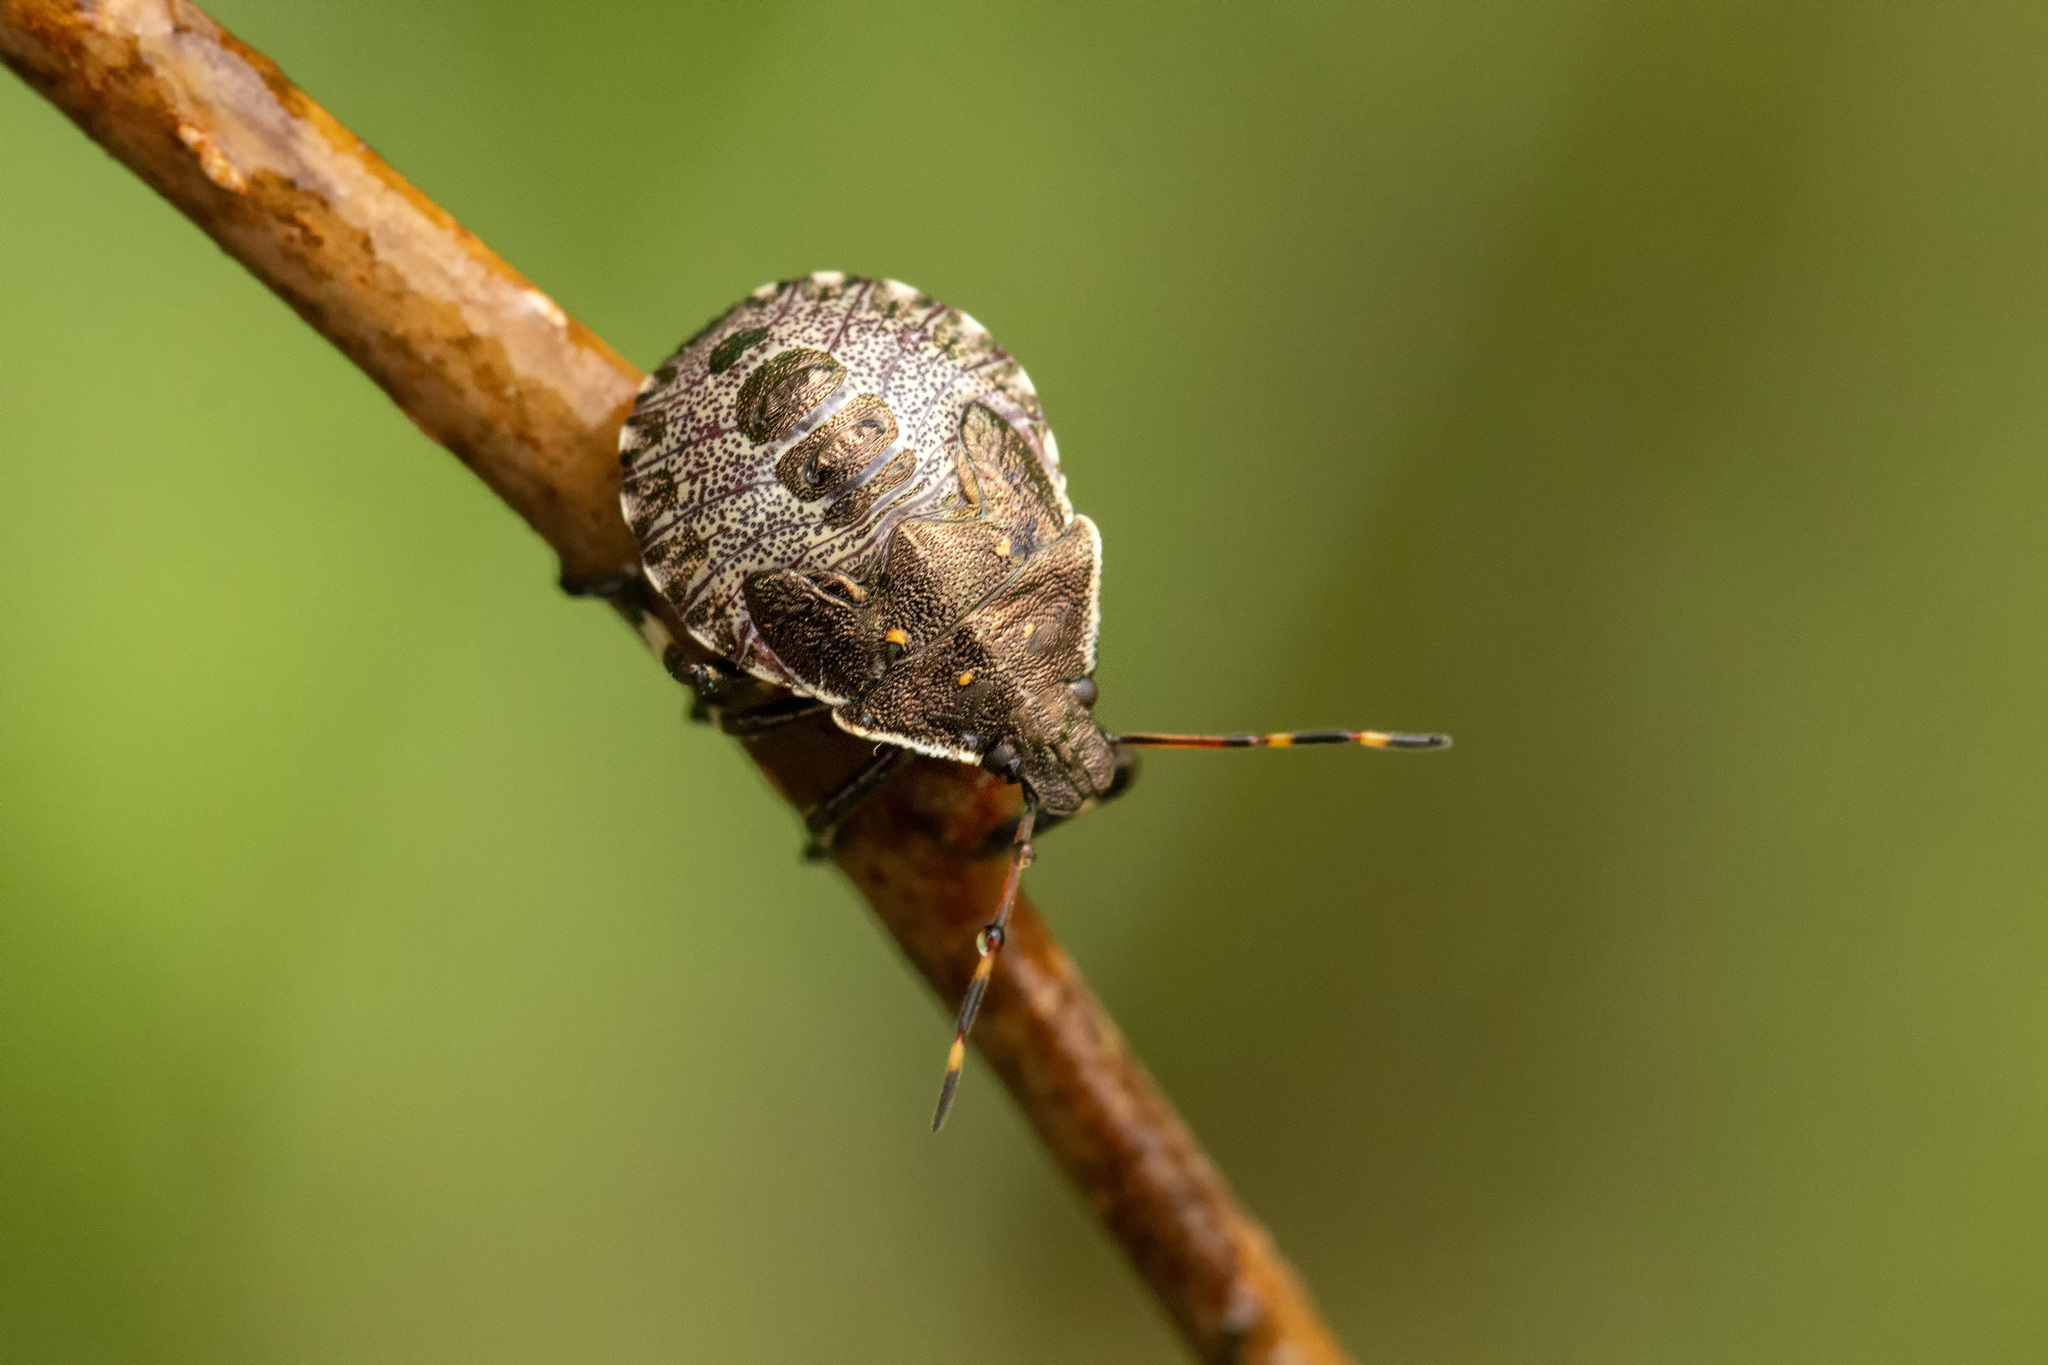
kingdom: Animalia
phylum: Arthropoda
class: Insecta
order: Hemiptera
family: Pentatomidae
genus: Picromerus
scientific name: Picromerus bidens
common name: Spiked shieldbug
